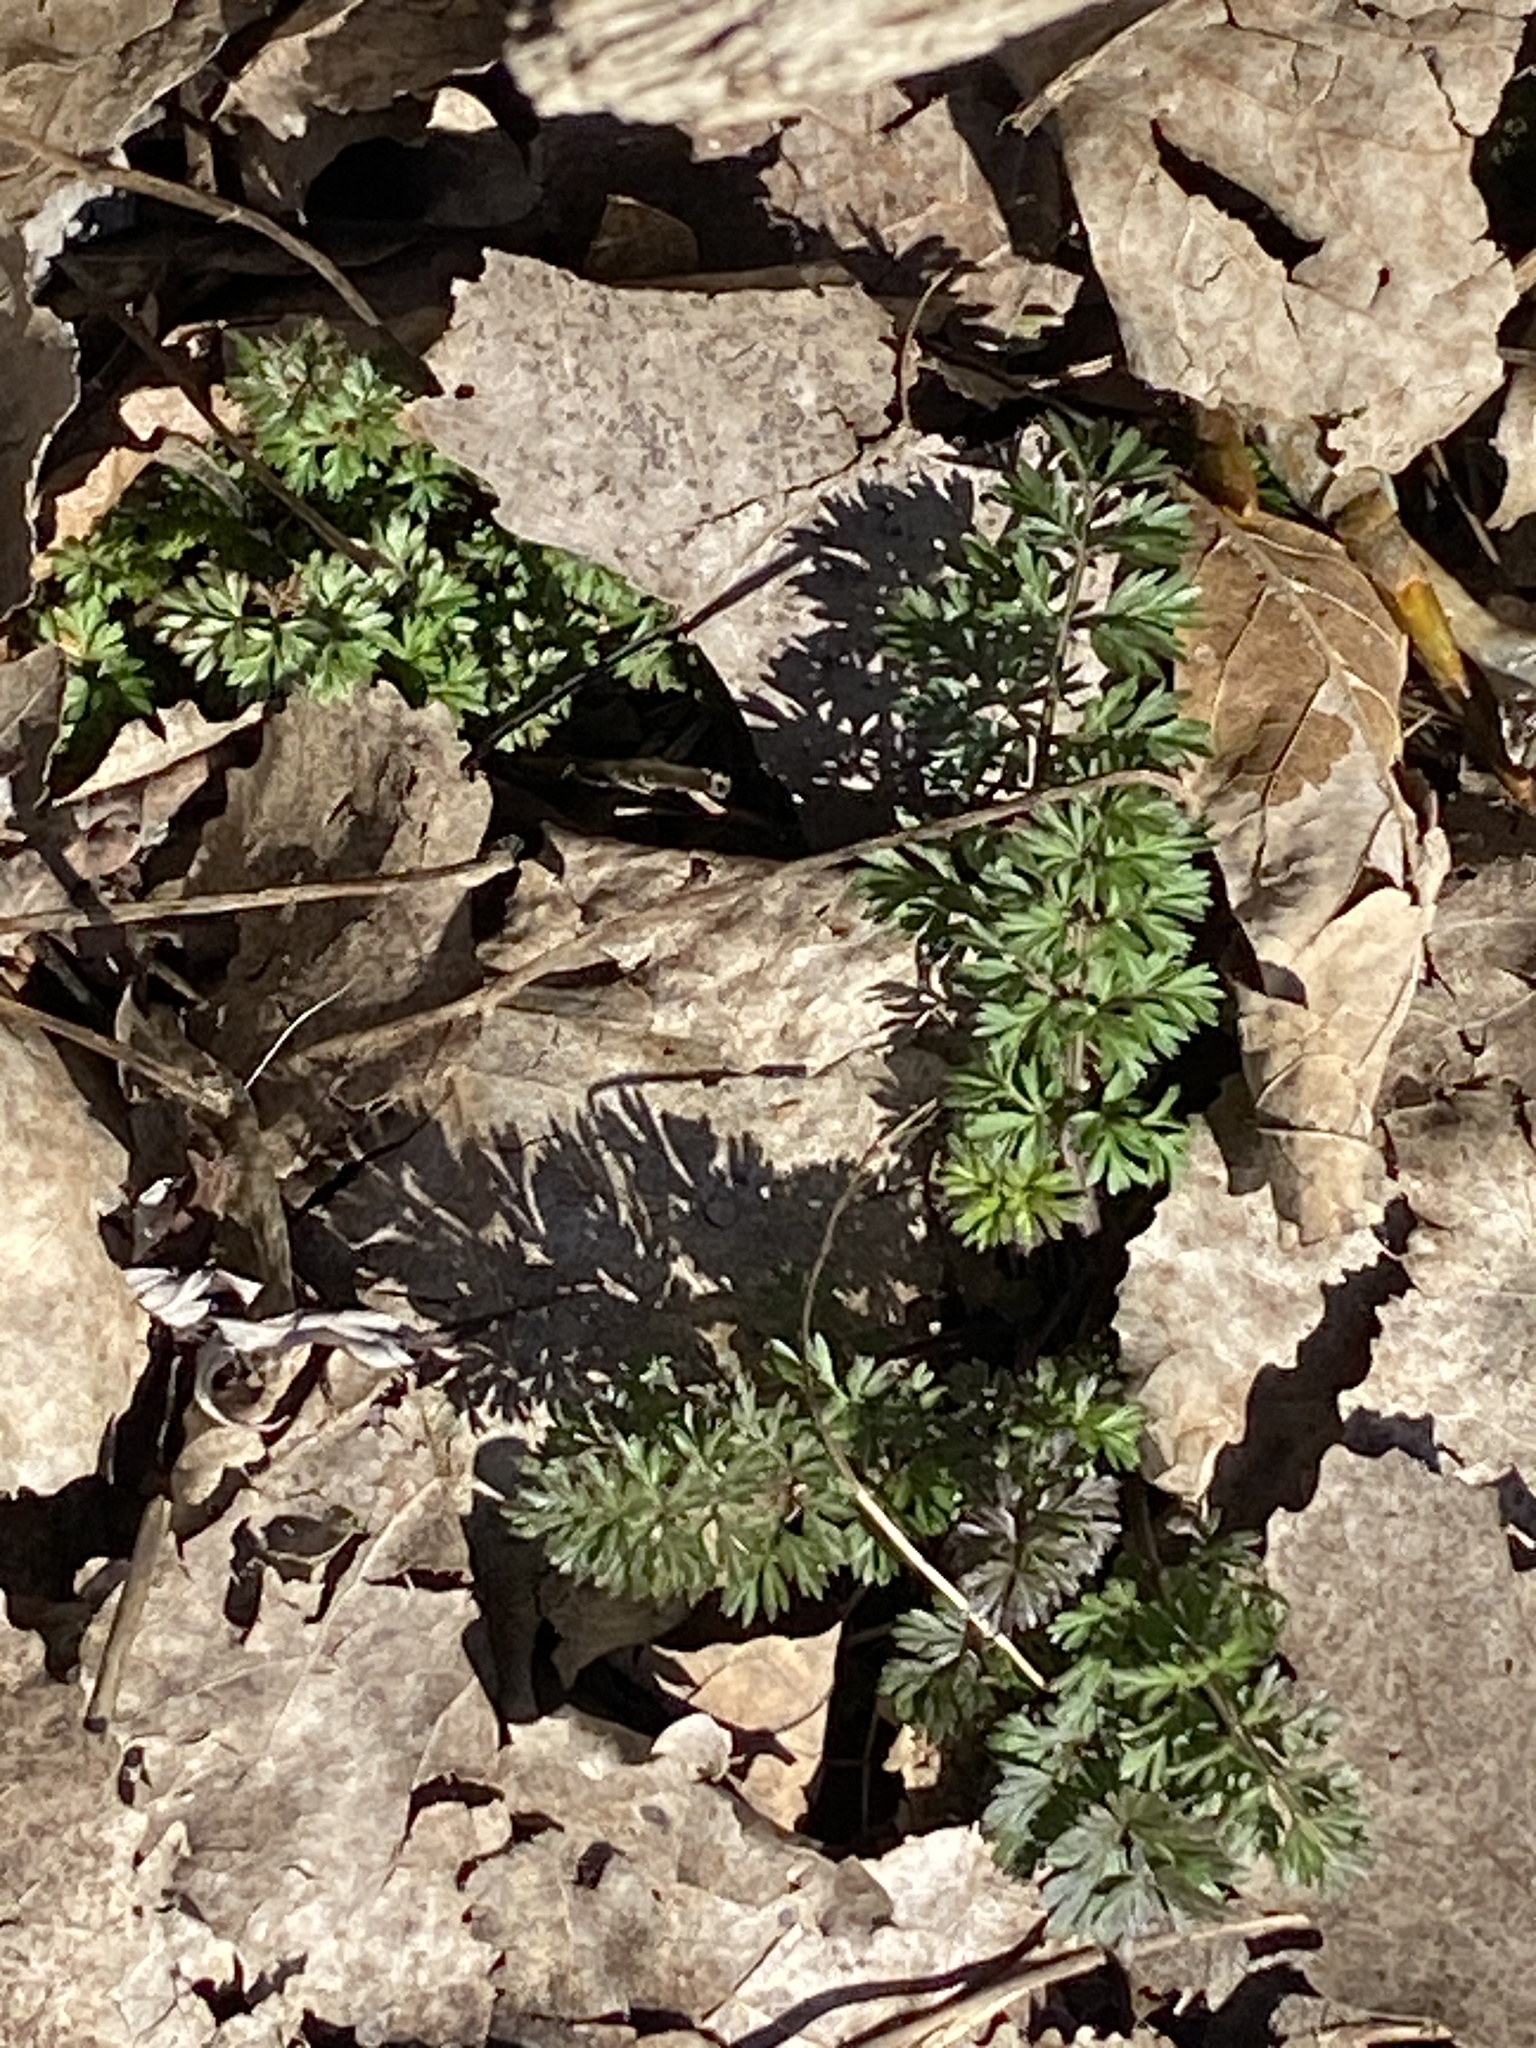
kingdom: Plantae
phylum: Tracheophyta
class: Magnoliopsida
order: Apiales
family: Apiaceae
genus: Daucus
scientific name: Daucus carota
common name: Wild carrot
